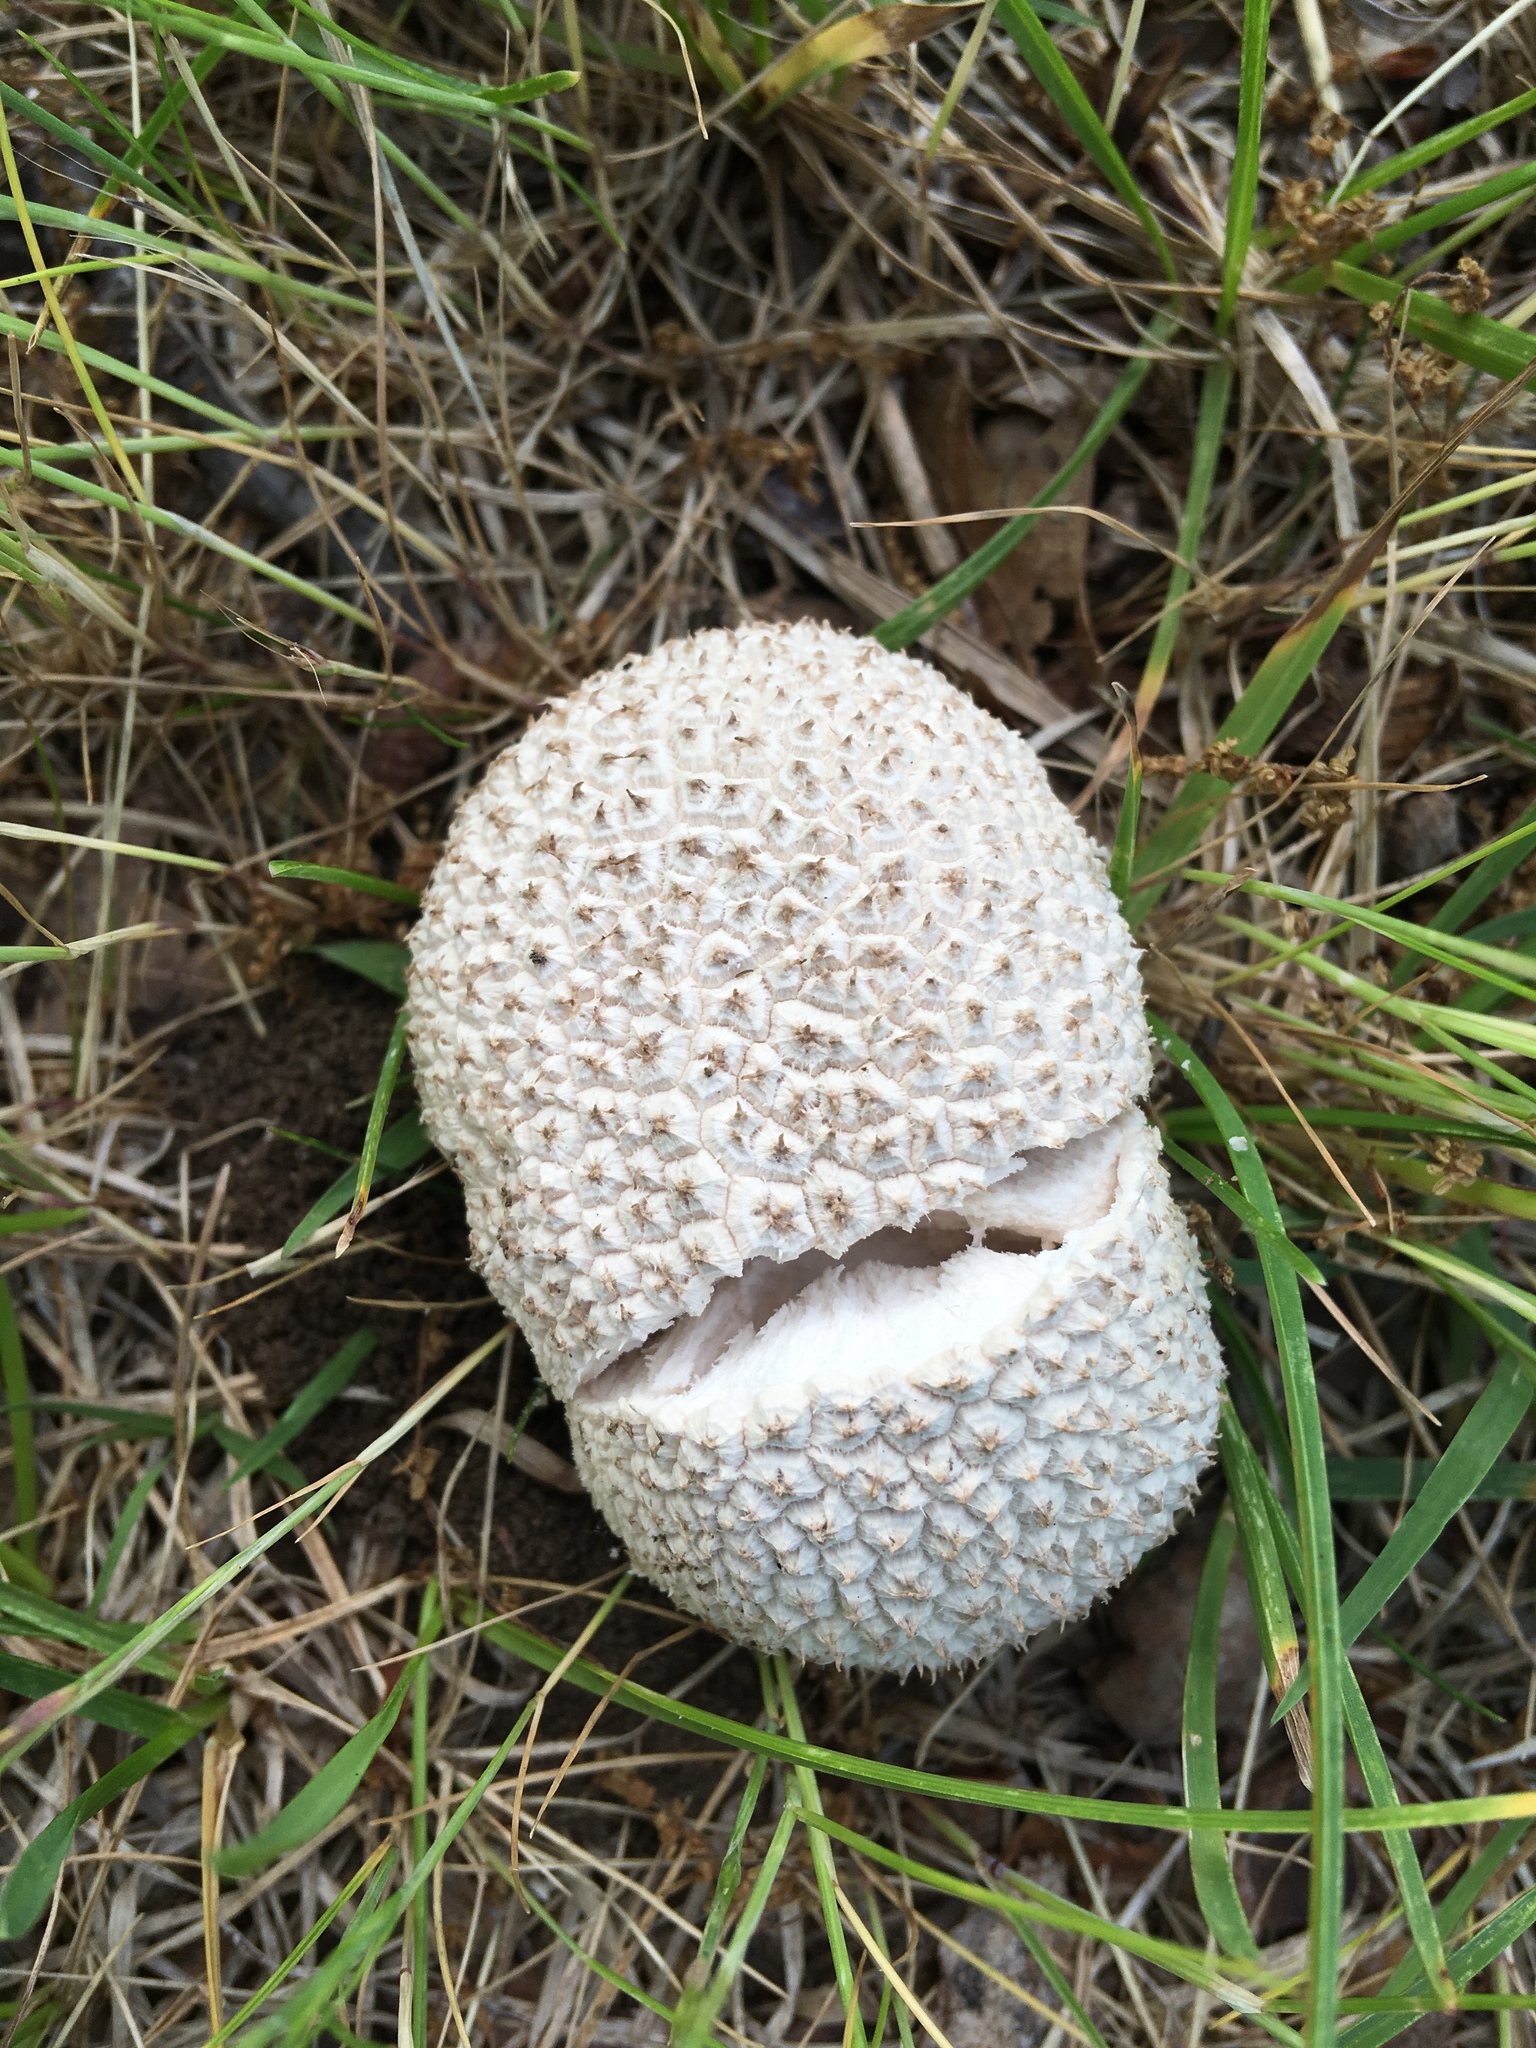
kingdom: Fungi
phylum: Basidiomycota
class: Agaricomycetes
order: Agaricales
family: Agaricaceae
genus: Lycoperdon
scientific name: Lycoperdon marginatum
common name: Peeling puffball
